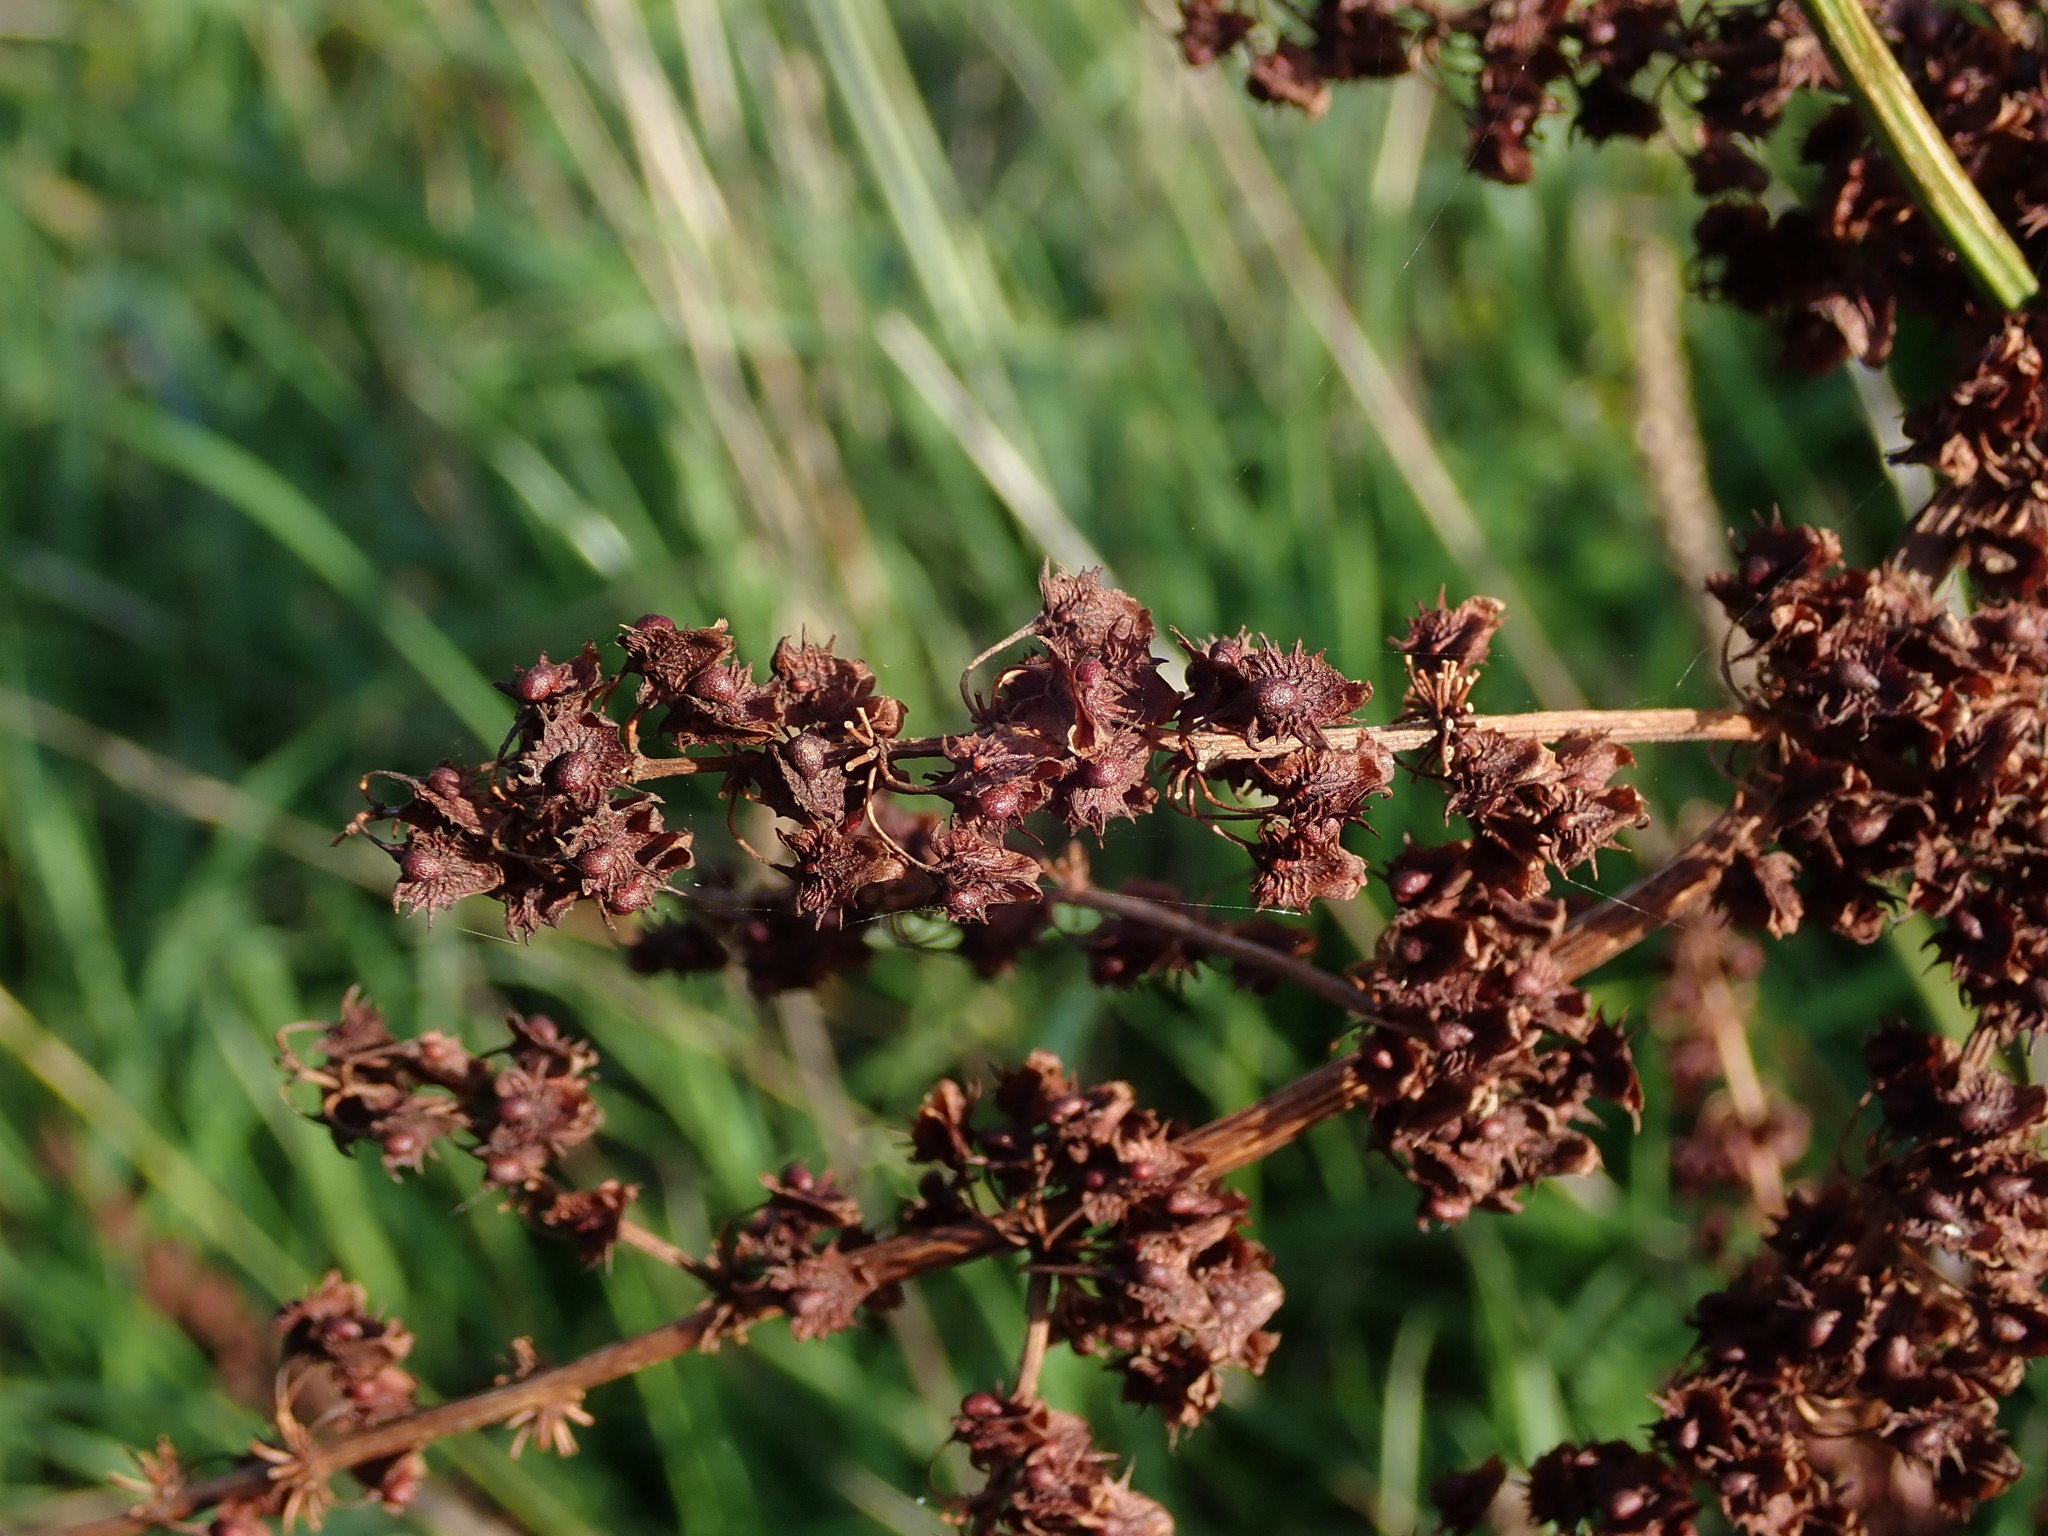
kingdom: Plantae
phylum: Tracheophyta
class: Magnoliopsida
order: Caryophyllales
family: Polygonaceae
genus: Rumex
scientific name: Rumex obtusifolius
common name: Bitter dock
